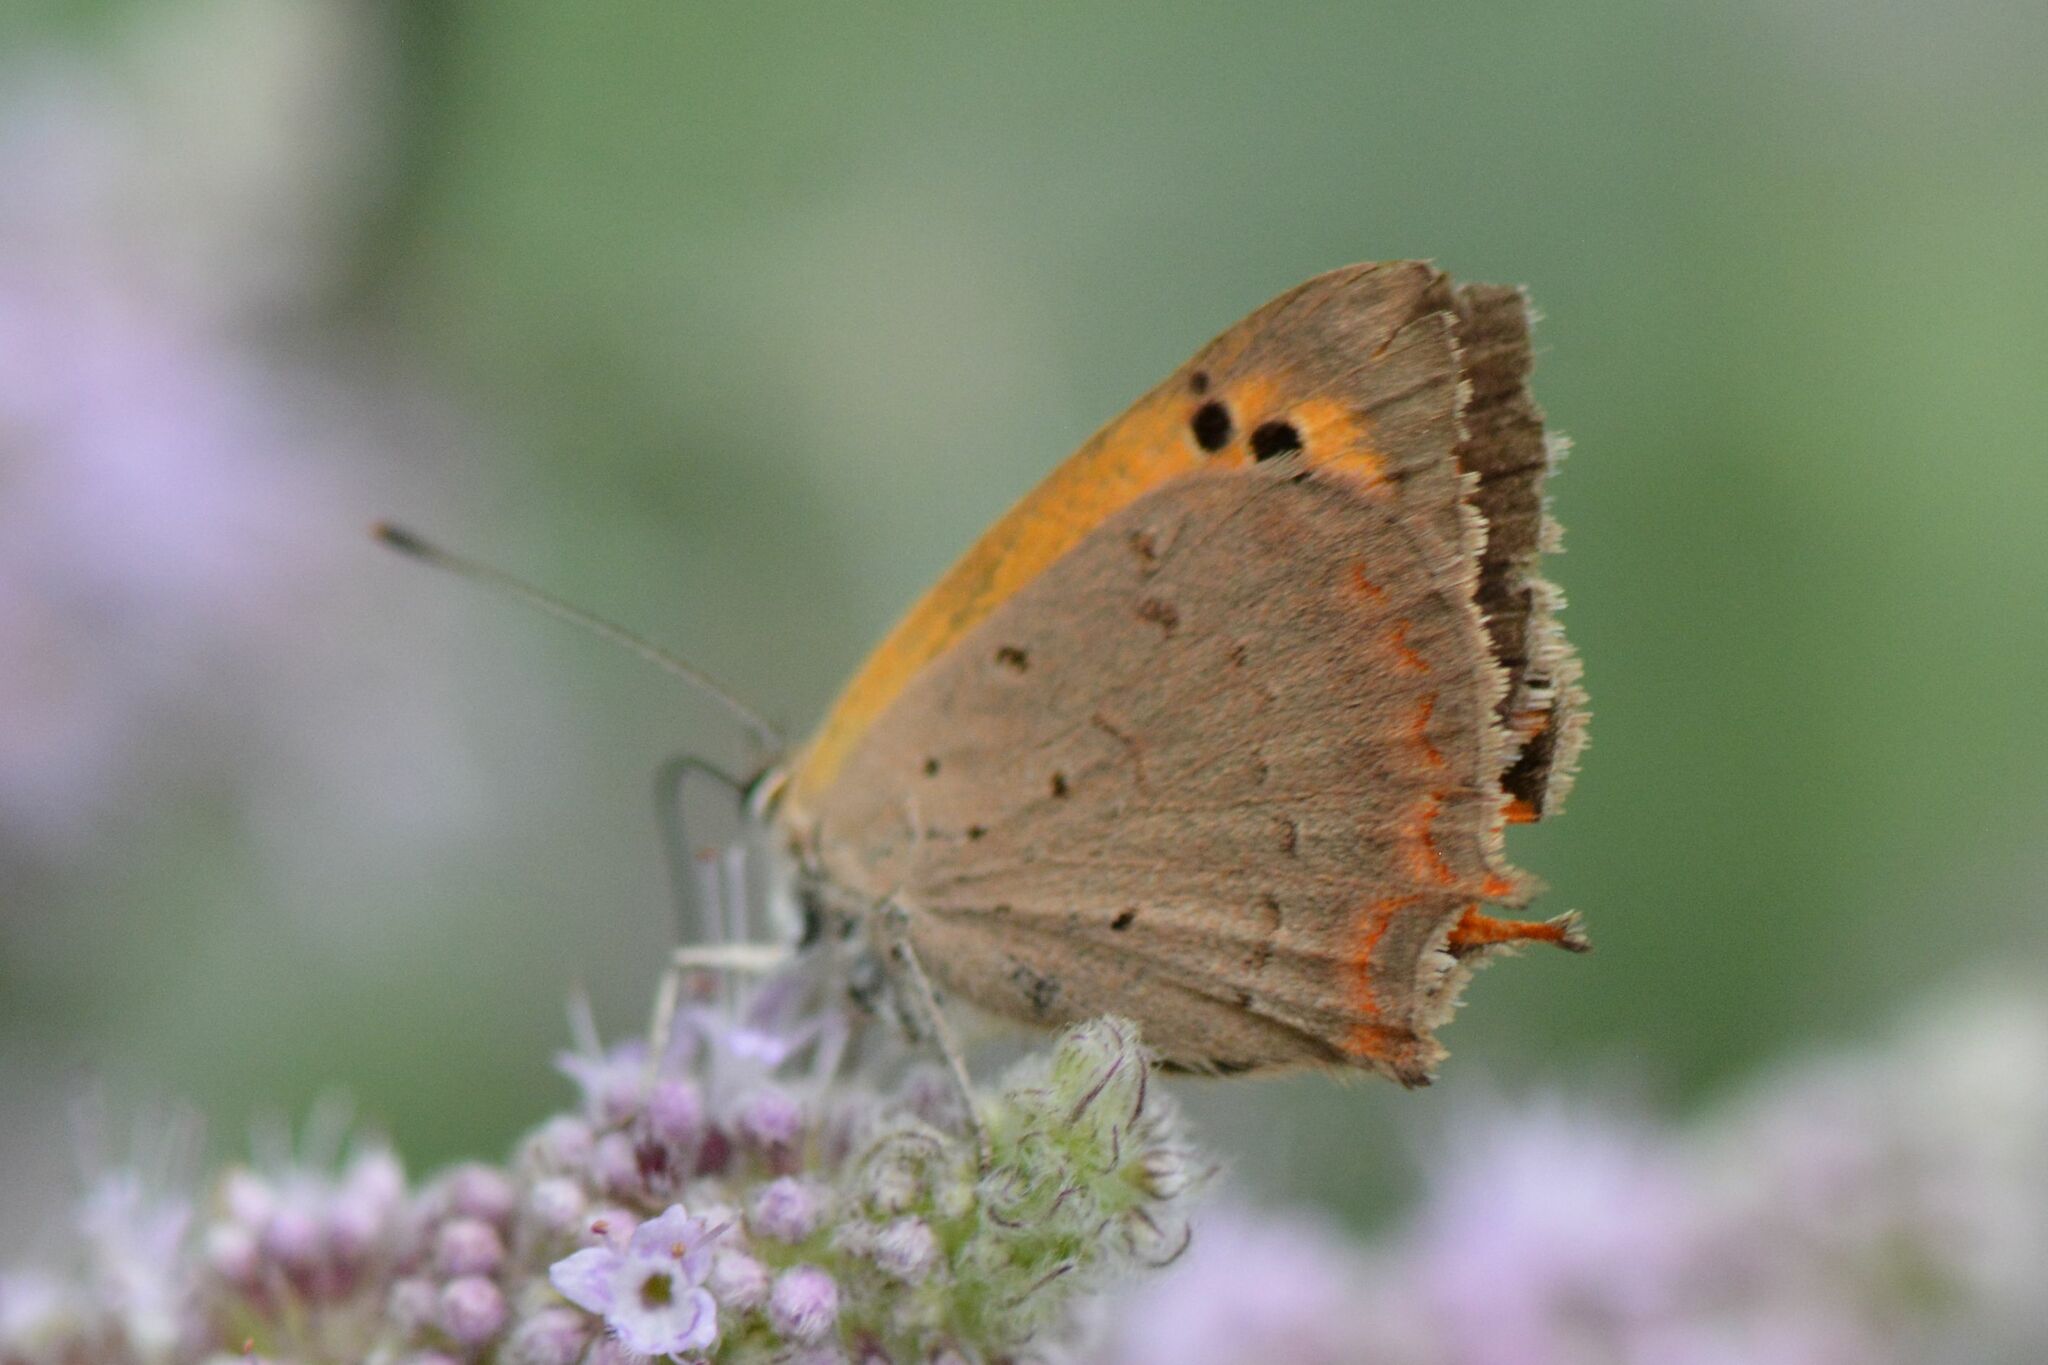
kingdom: Animalia
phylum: Arthropoda
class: Insecta
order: Lepidoptera
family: Lycaenidae
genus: Lycaena
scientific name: Lycaena phlaeas
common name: Small copper
